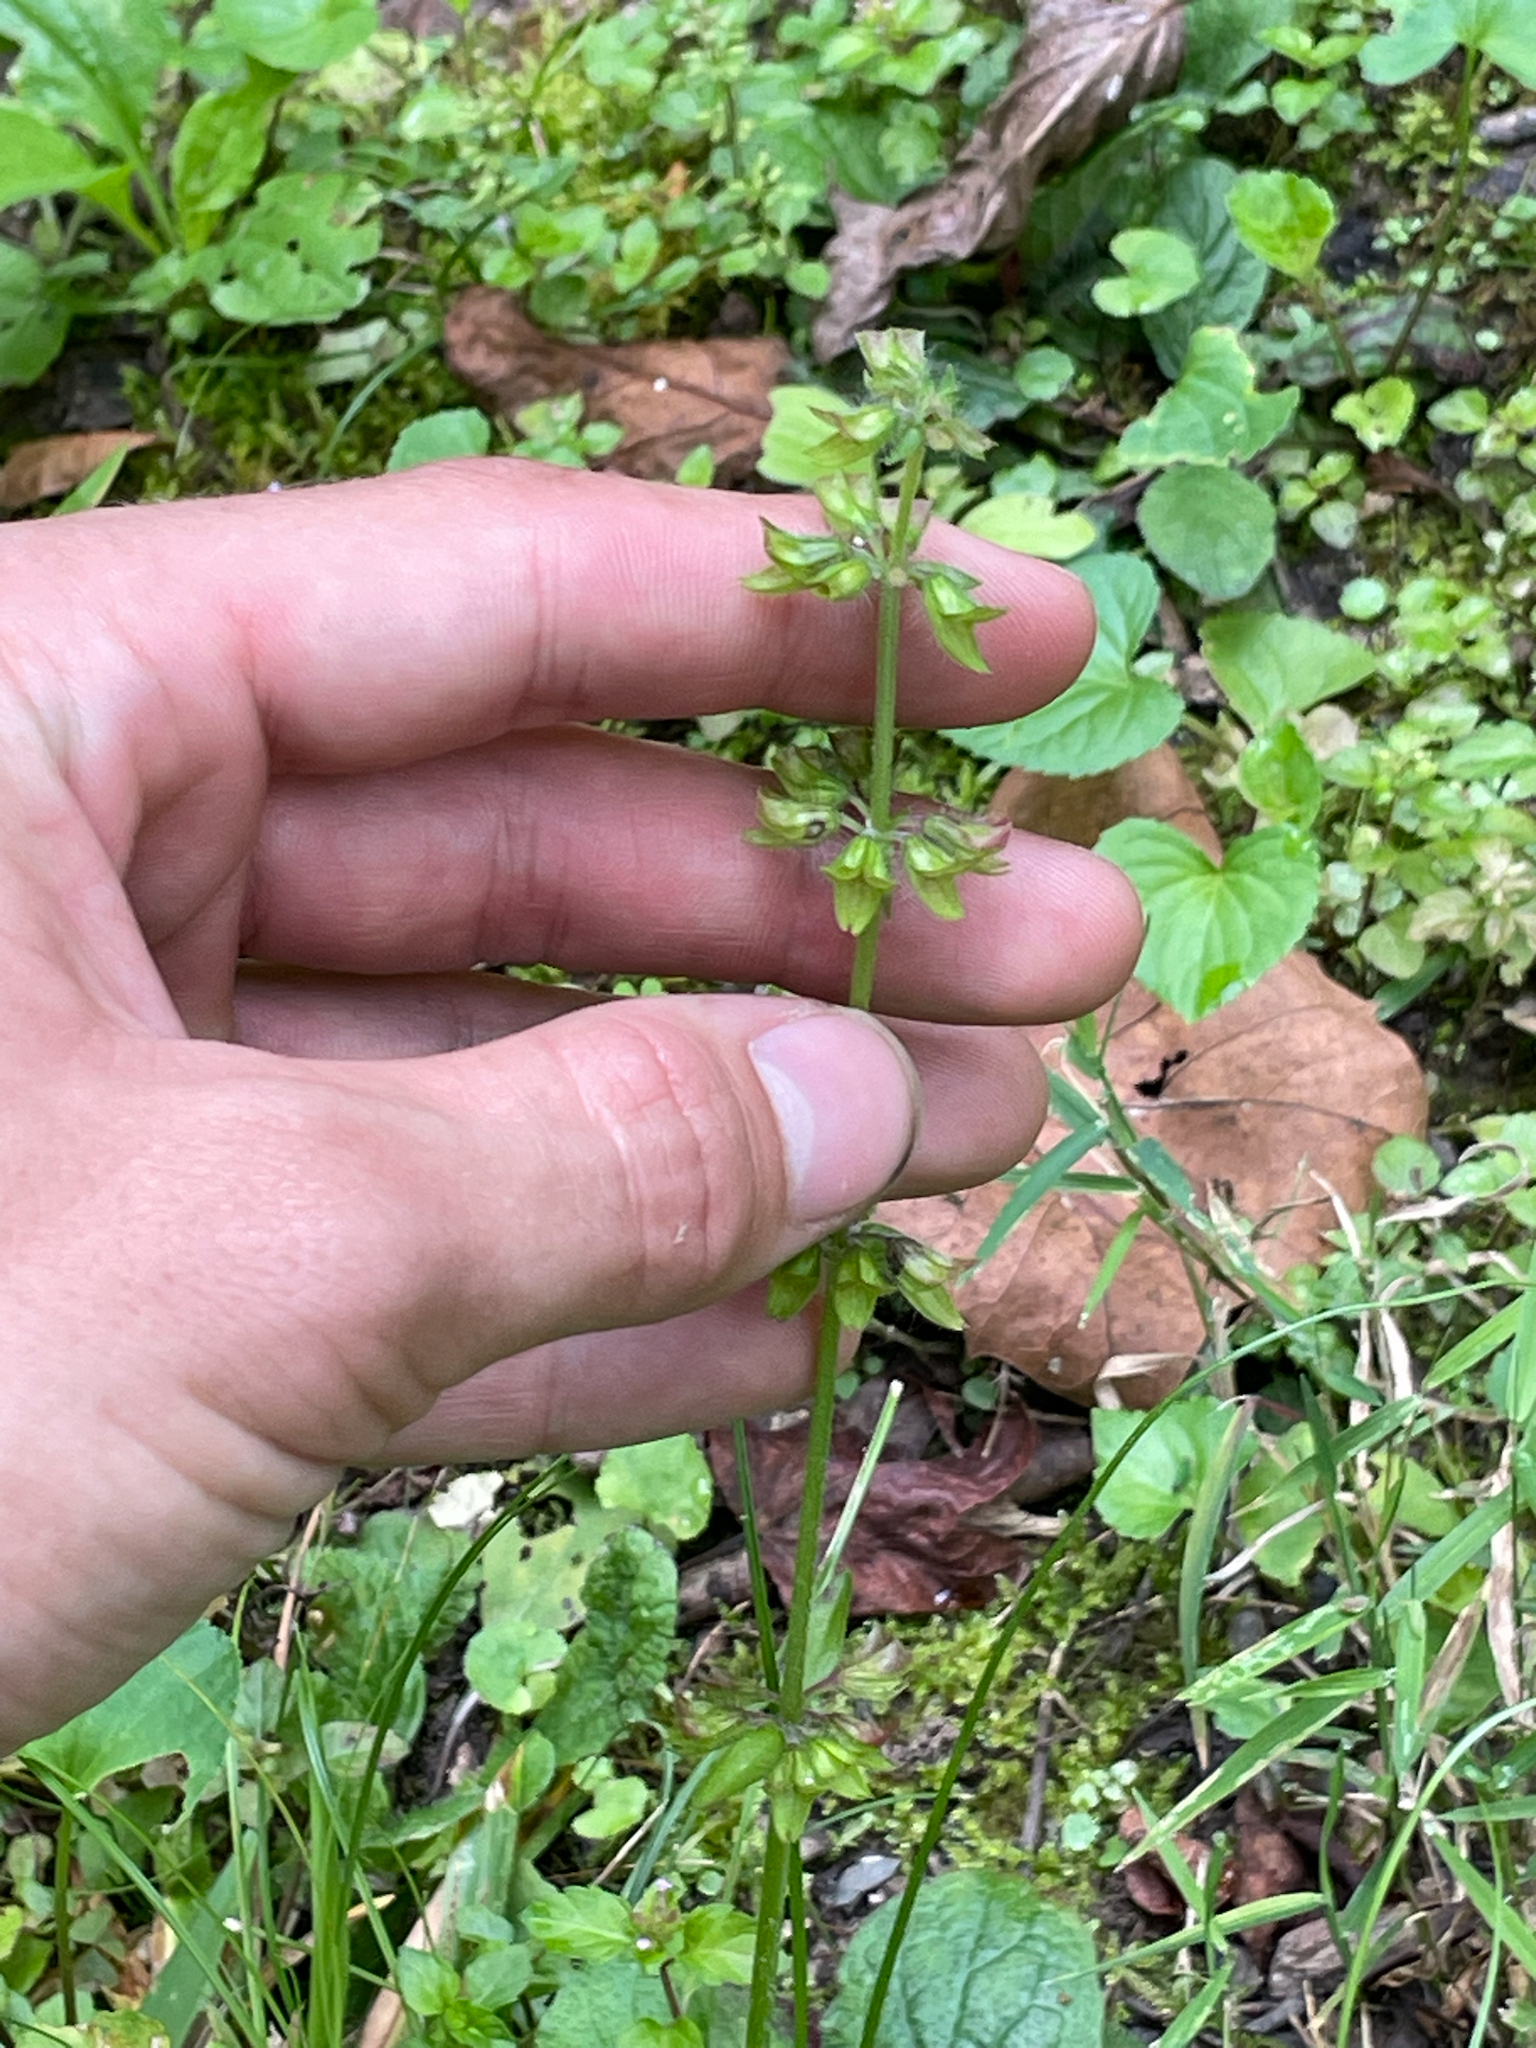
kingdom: Plantae
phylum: Tracheophyta
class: Magnoliopsida
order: Lamiales
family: Lamiaceae
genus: Salvia
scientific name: Salvia lyrata
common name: Cancerweed
